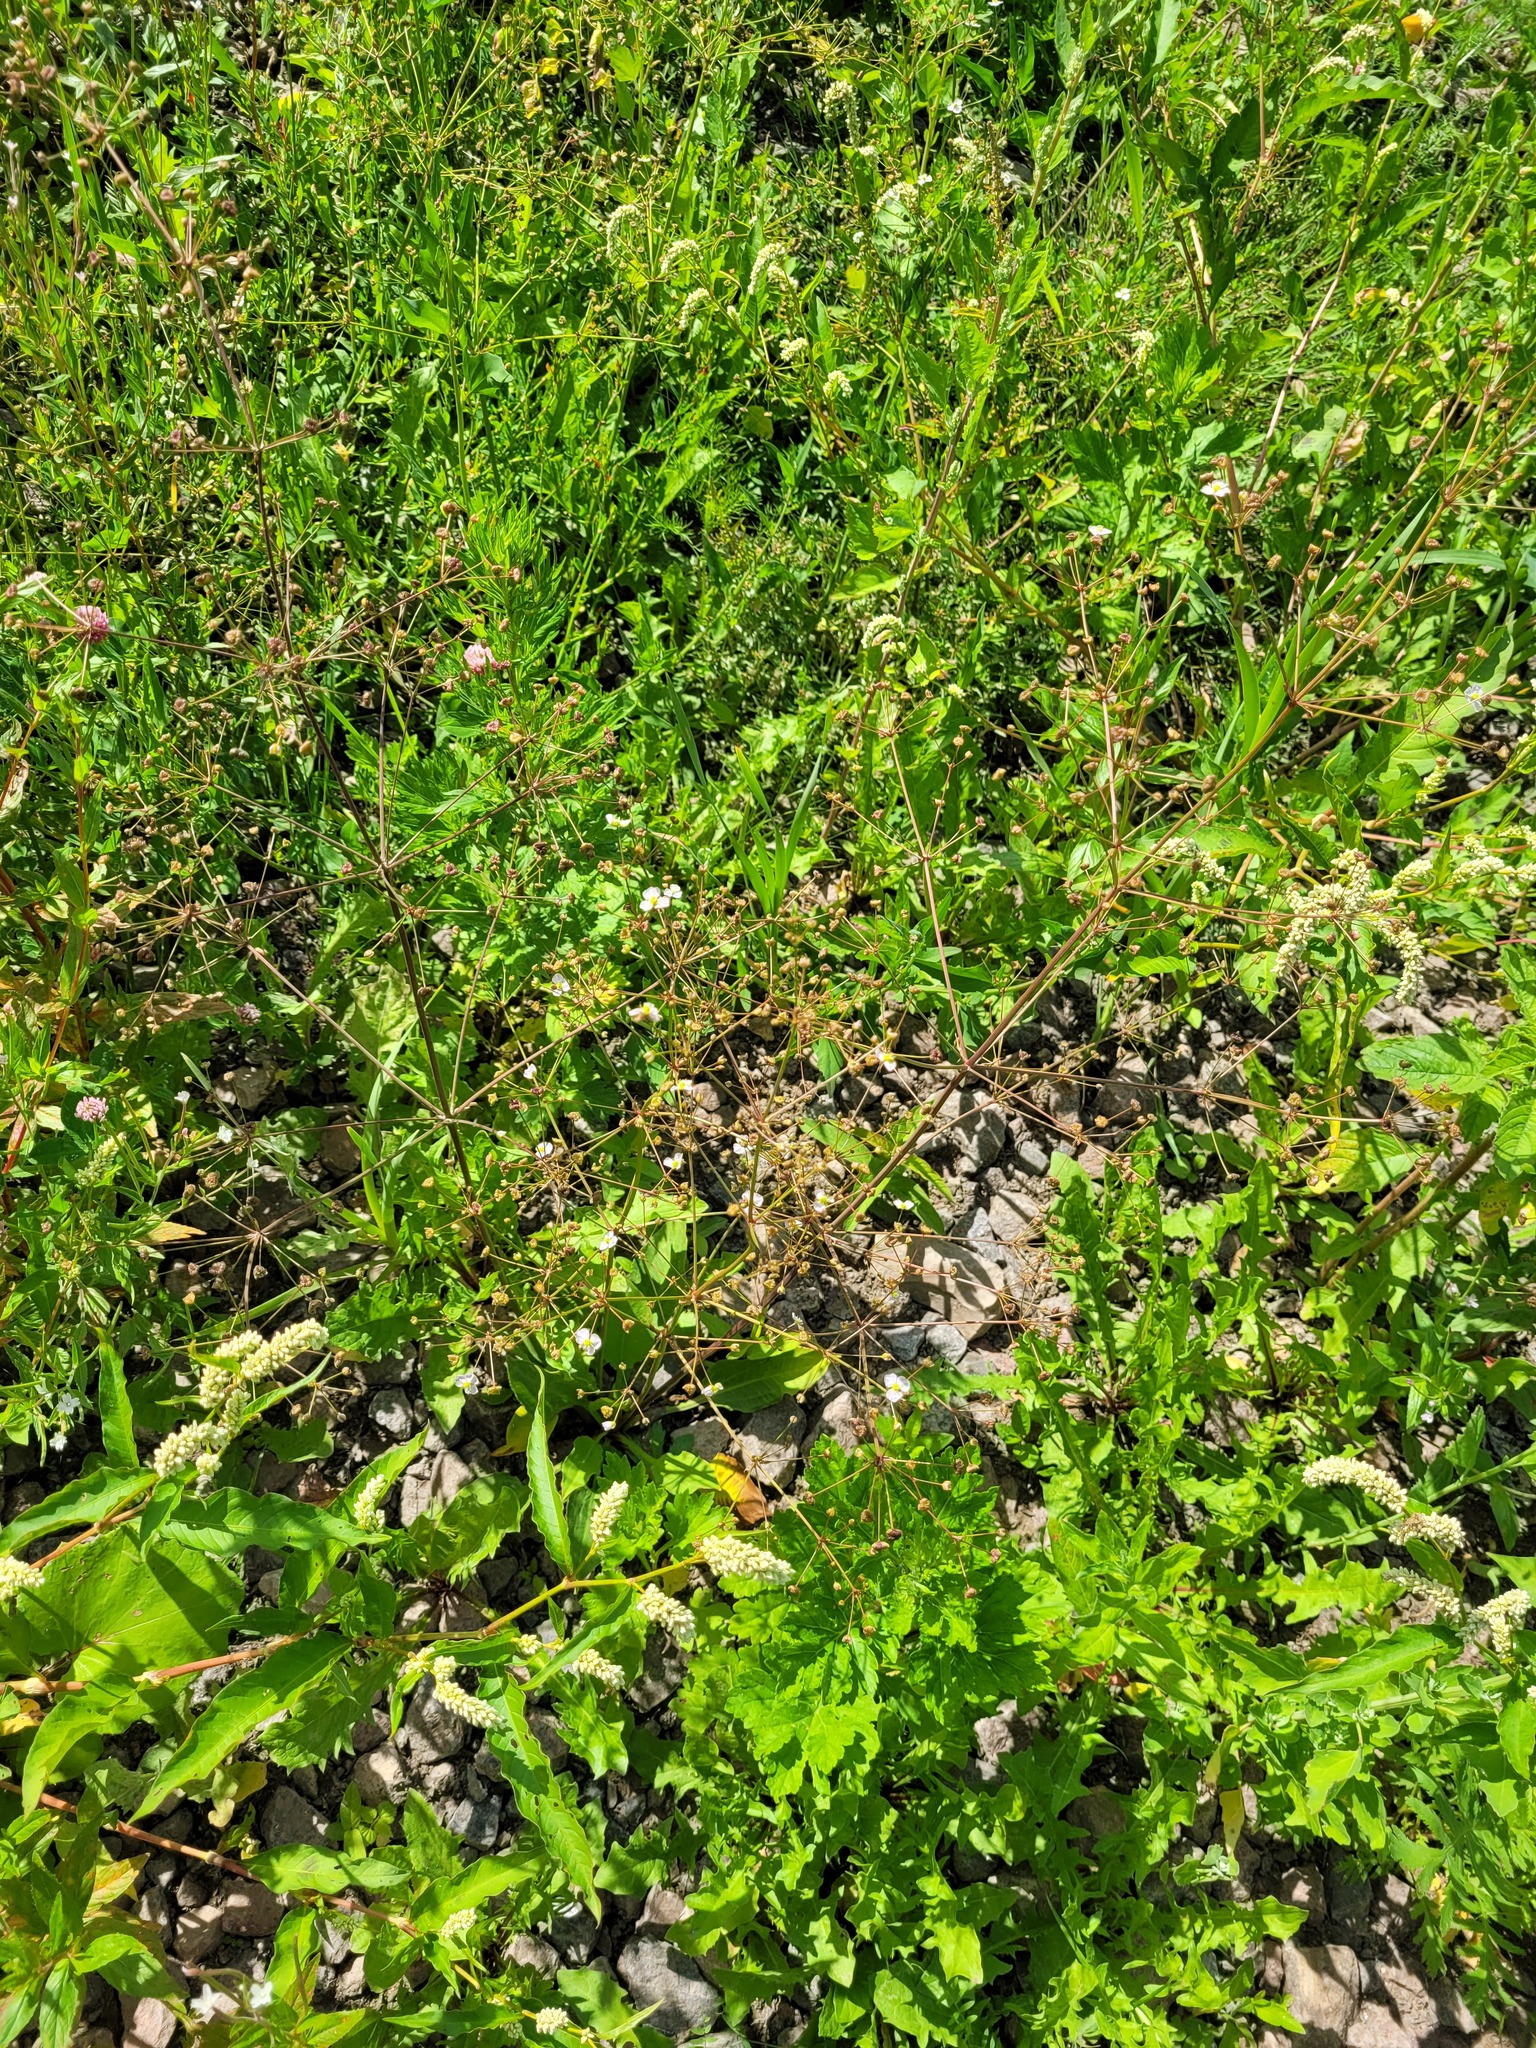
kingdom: Plantae
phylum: Tracheophyta
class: Liliopsida
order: Alismatales
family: Alismataceae
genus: Alisma
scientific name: Alisma plantago-aquatica
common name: Water-plantain
